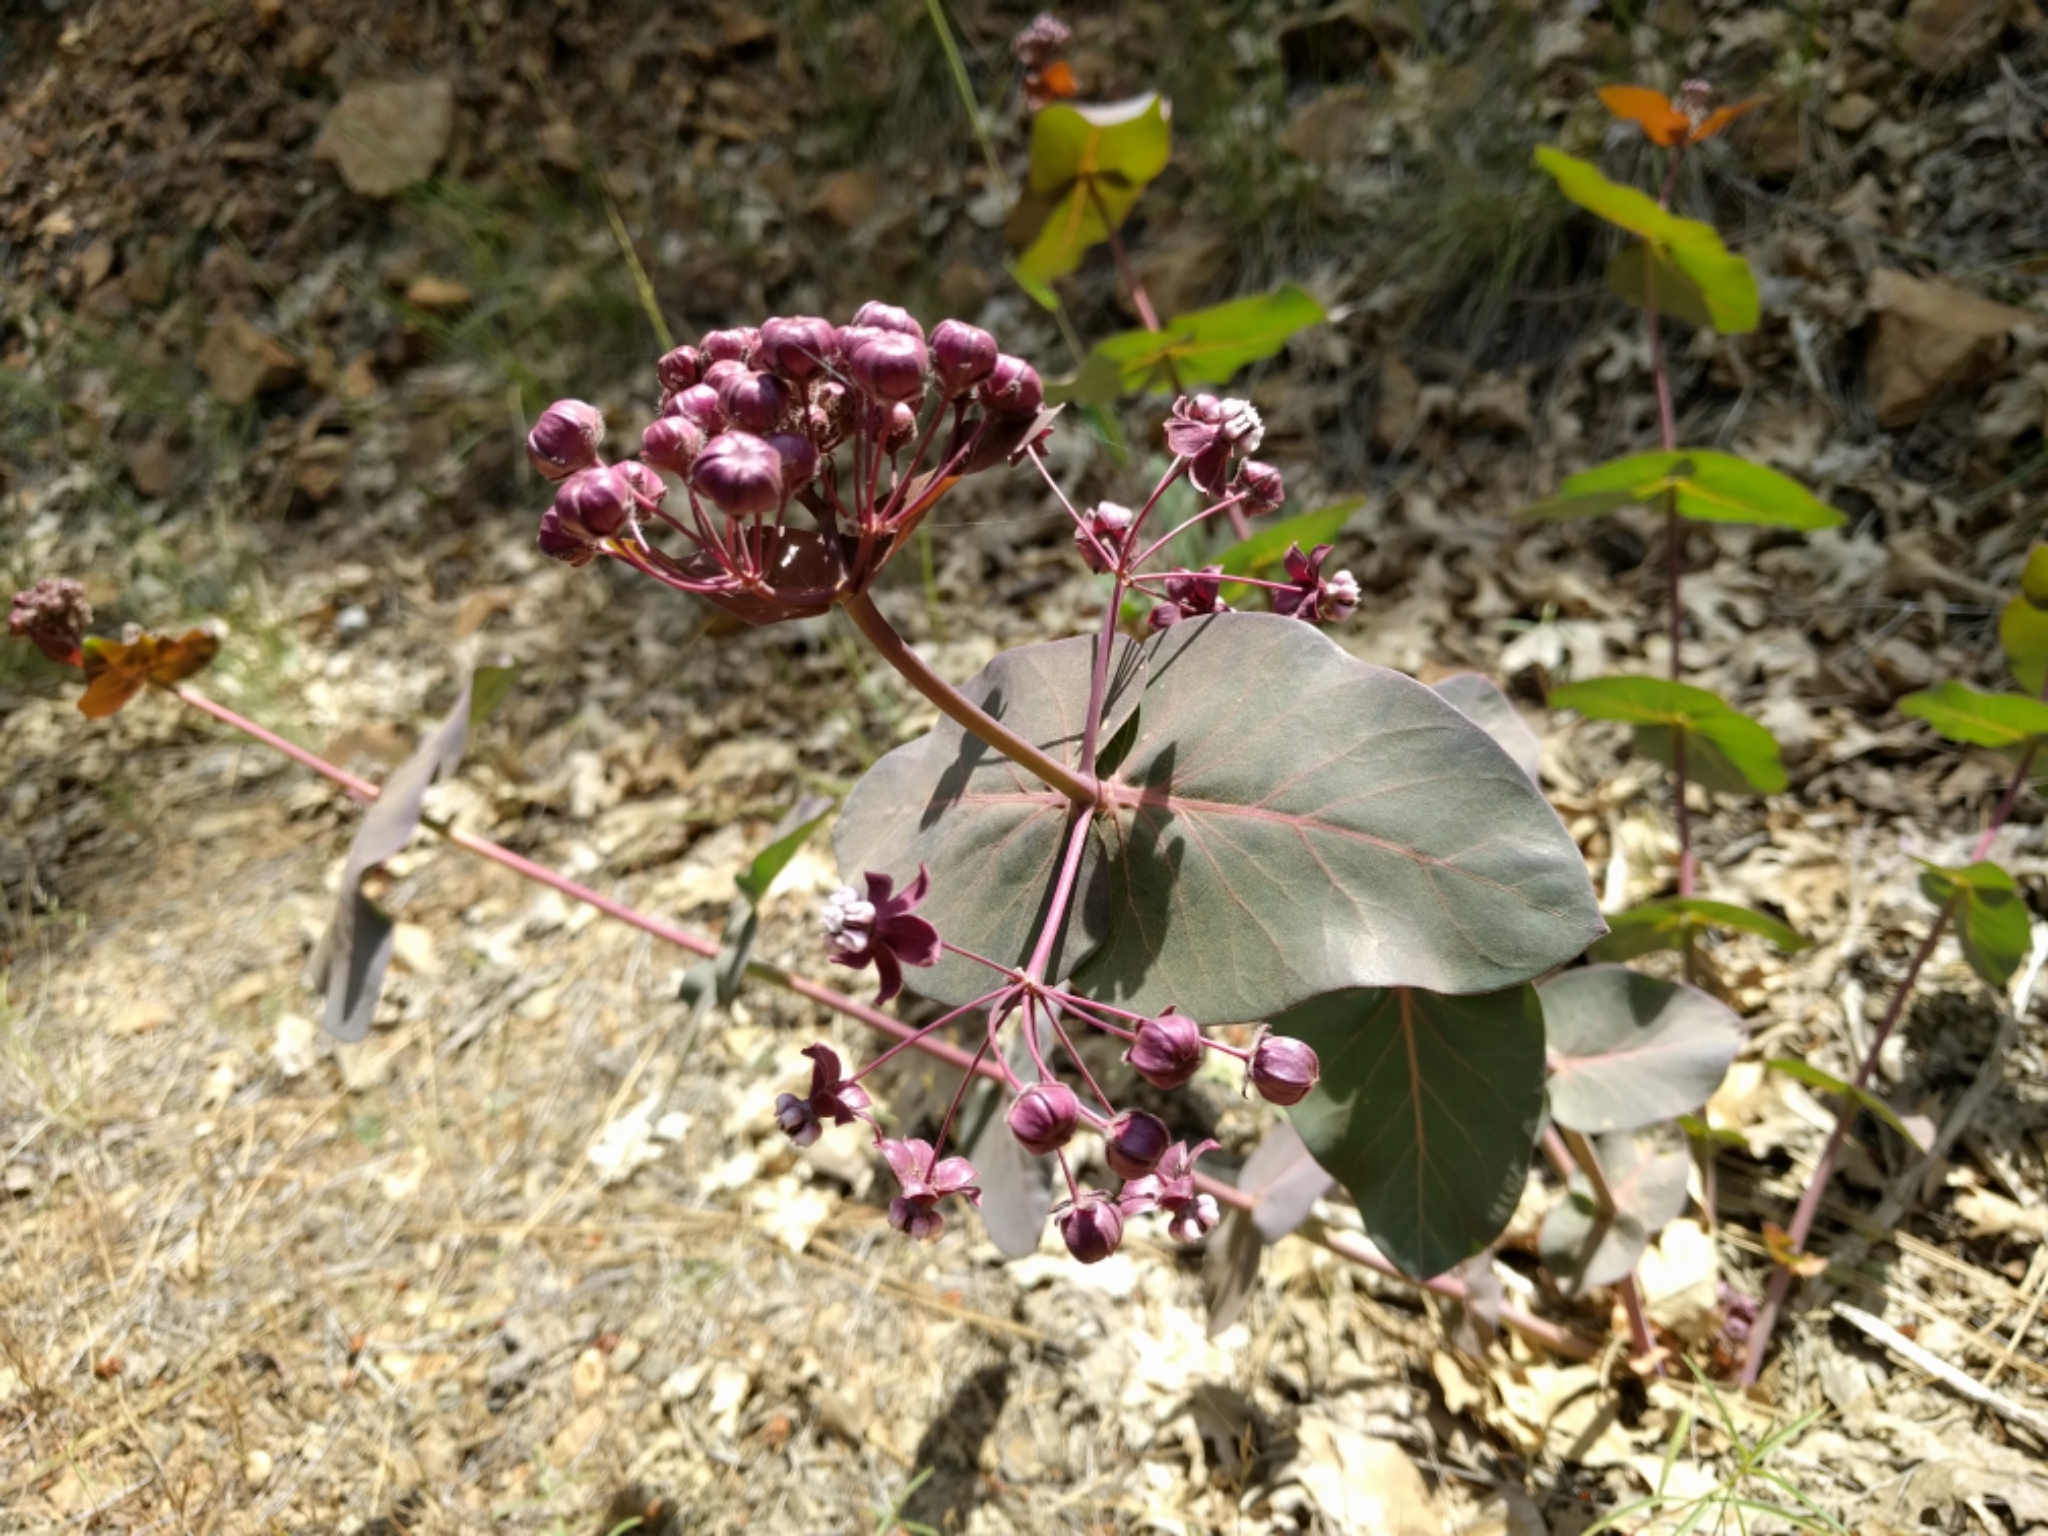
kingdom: Plantae
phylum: Tracheophyta
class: Magnoliopsida
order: Gentianales
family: Apocynaceae
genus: Asclepias
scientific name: Asclepias cordifolia
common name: Purple milkweed
